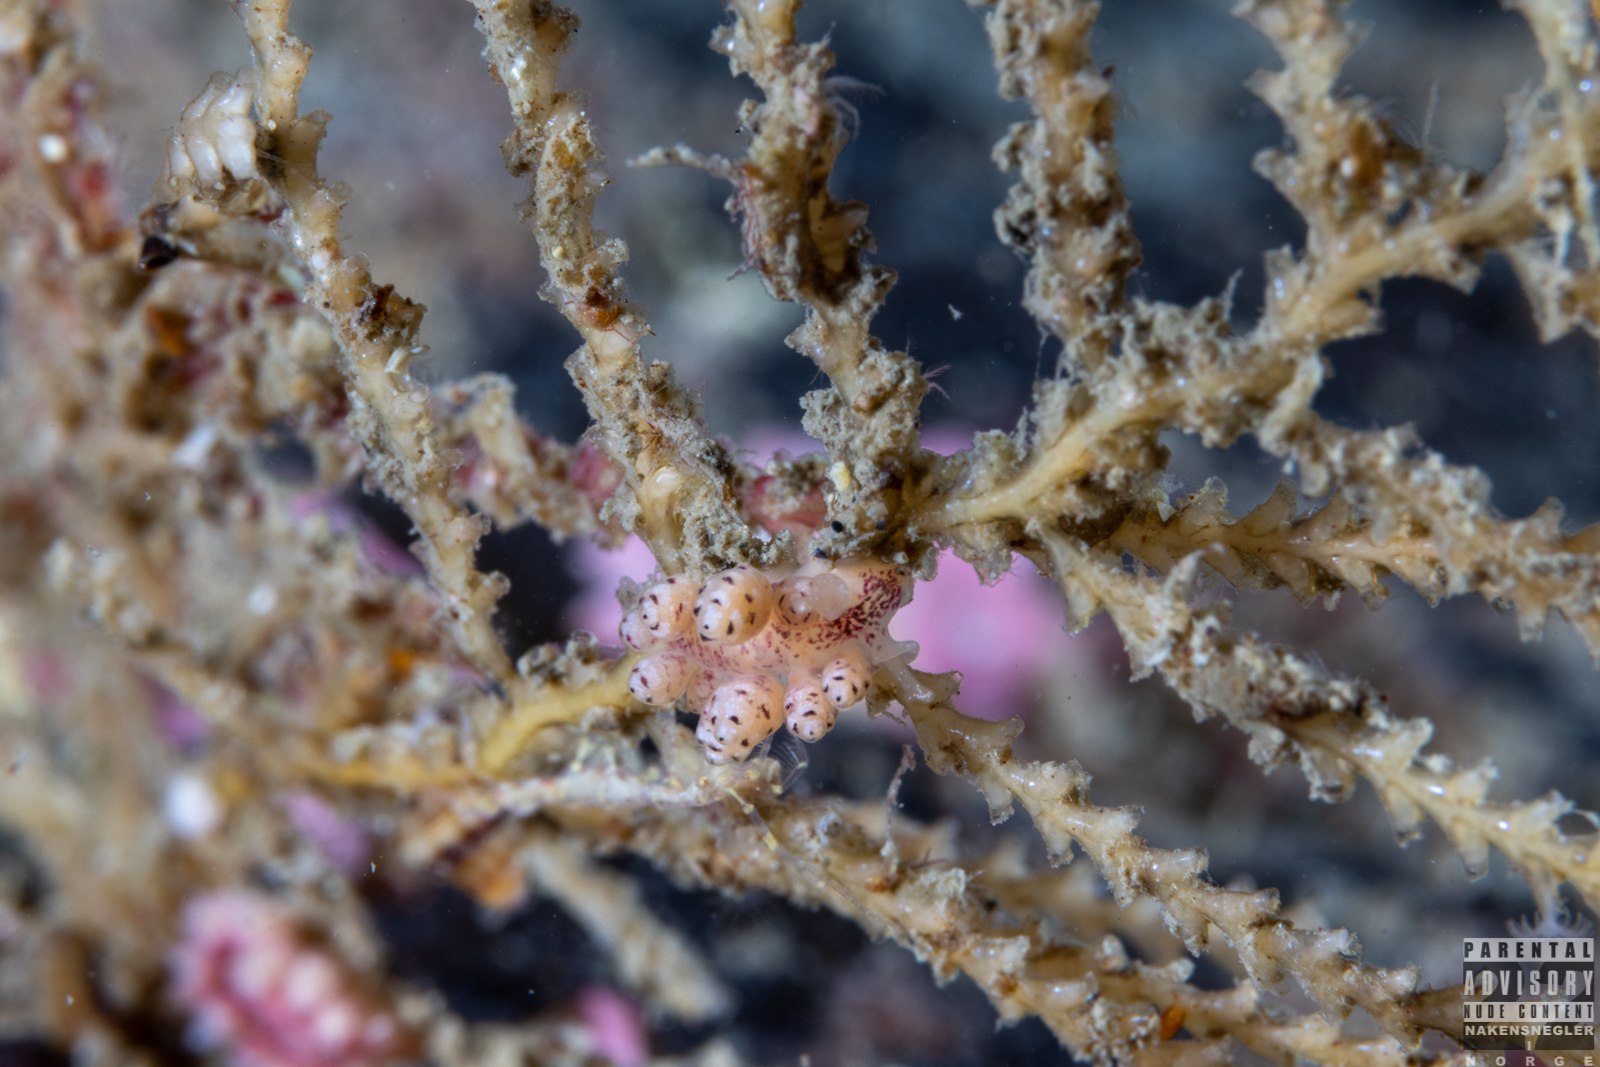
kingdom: Animalia
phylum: Mollusca
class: Gastropoda
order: Nudibranchia
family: Dotidae
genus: Doto
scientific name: Doto coronata
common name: Coronate doto
